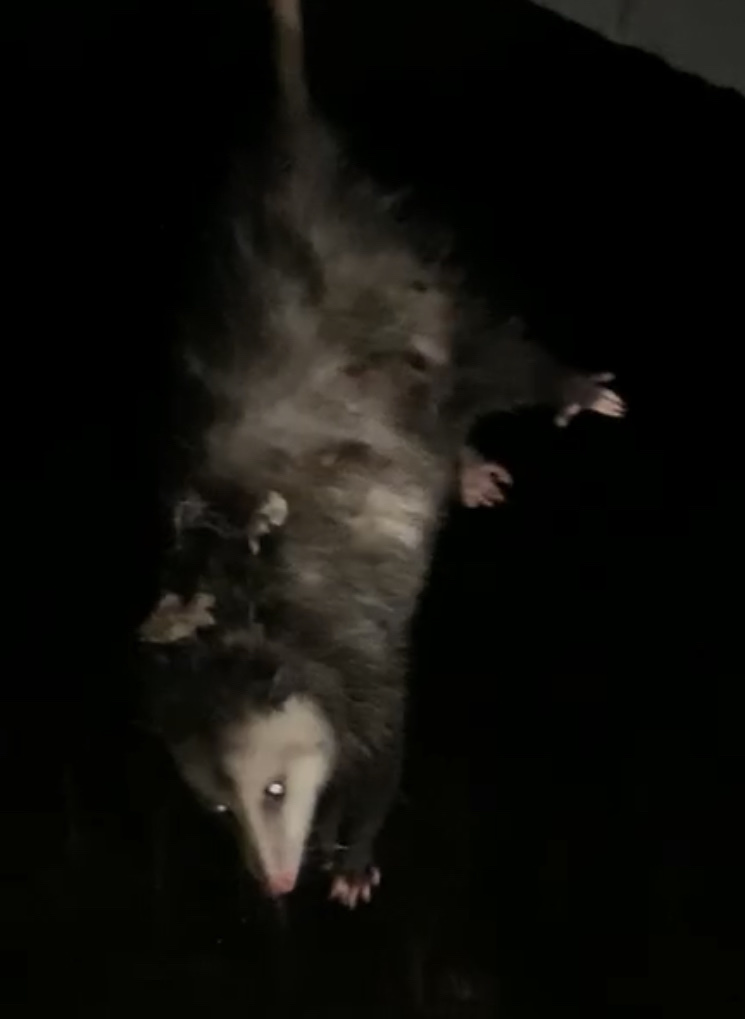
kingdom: Animalia
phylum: Chordata
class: Mammalia
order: Didelphimorphia
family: Didelphidae
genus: Didelphis
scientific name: Didelphis virginiana
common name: Virginia opossum
